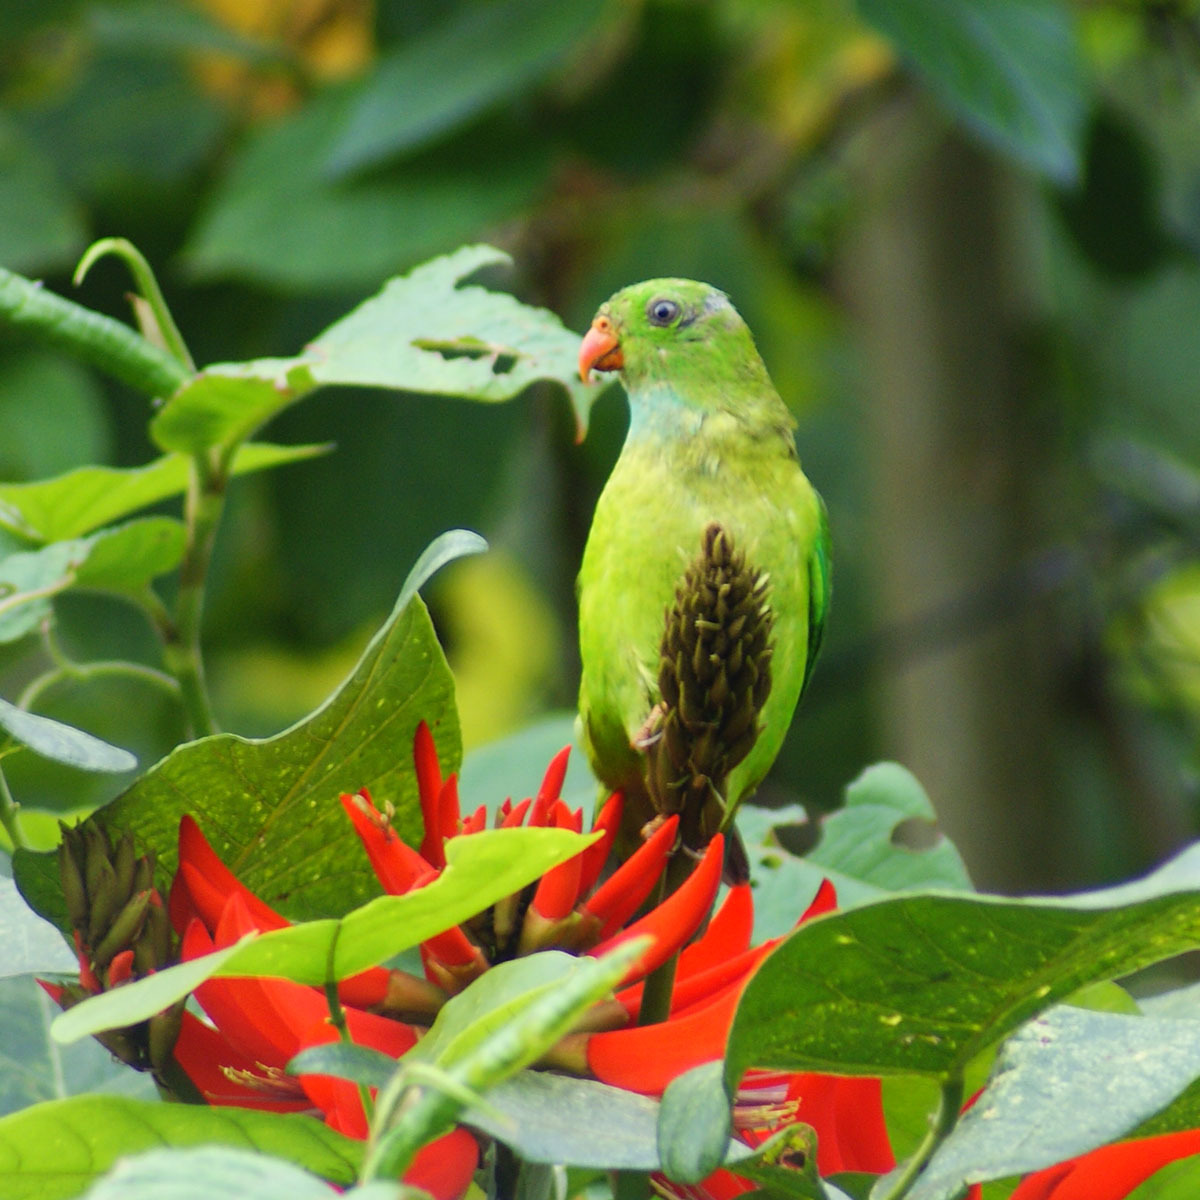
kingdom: Animalia
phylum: Chordata
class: Aves
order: Psittaciformes
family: Psittacidae
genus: Loriculus
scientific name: Loriculus vernalis
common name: Vernal hanging parrot
